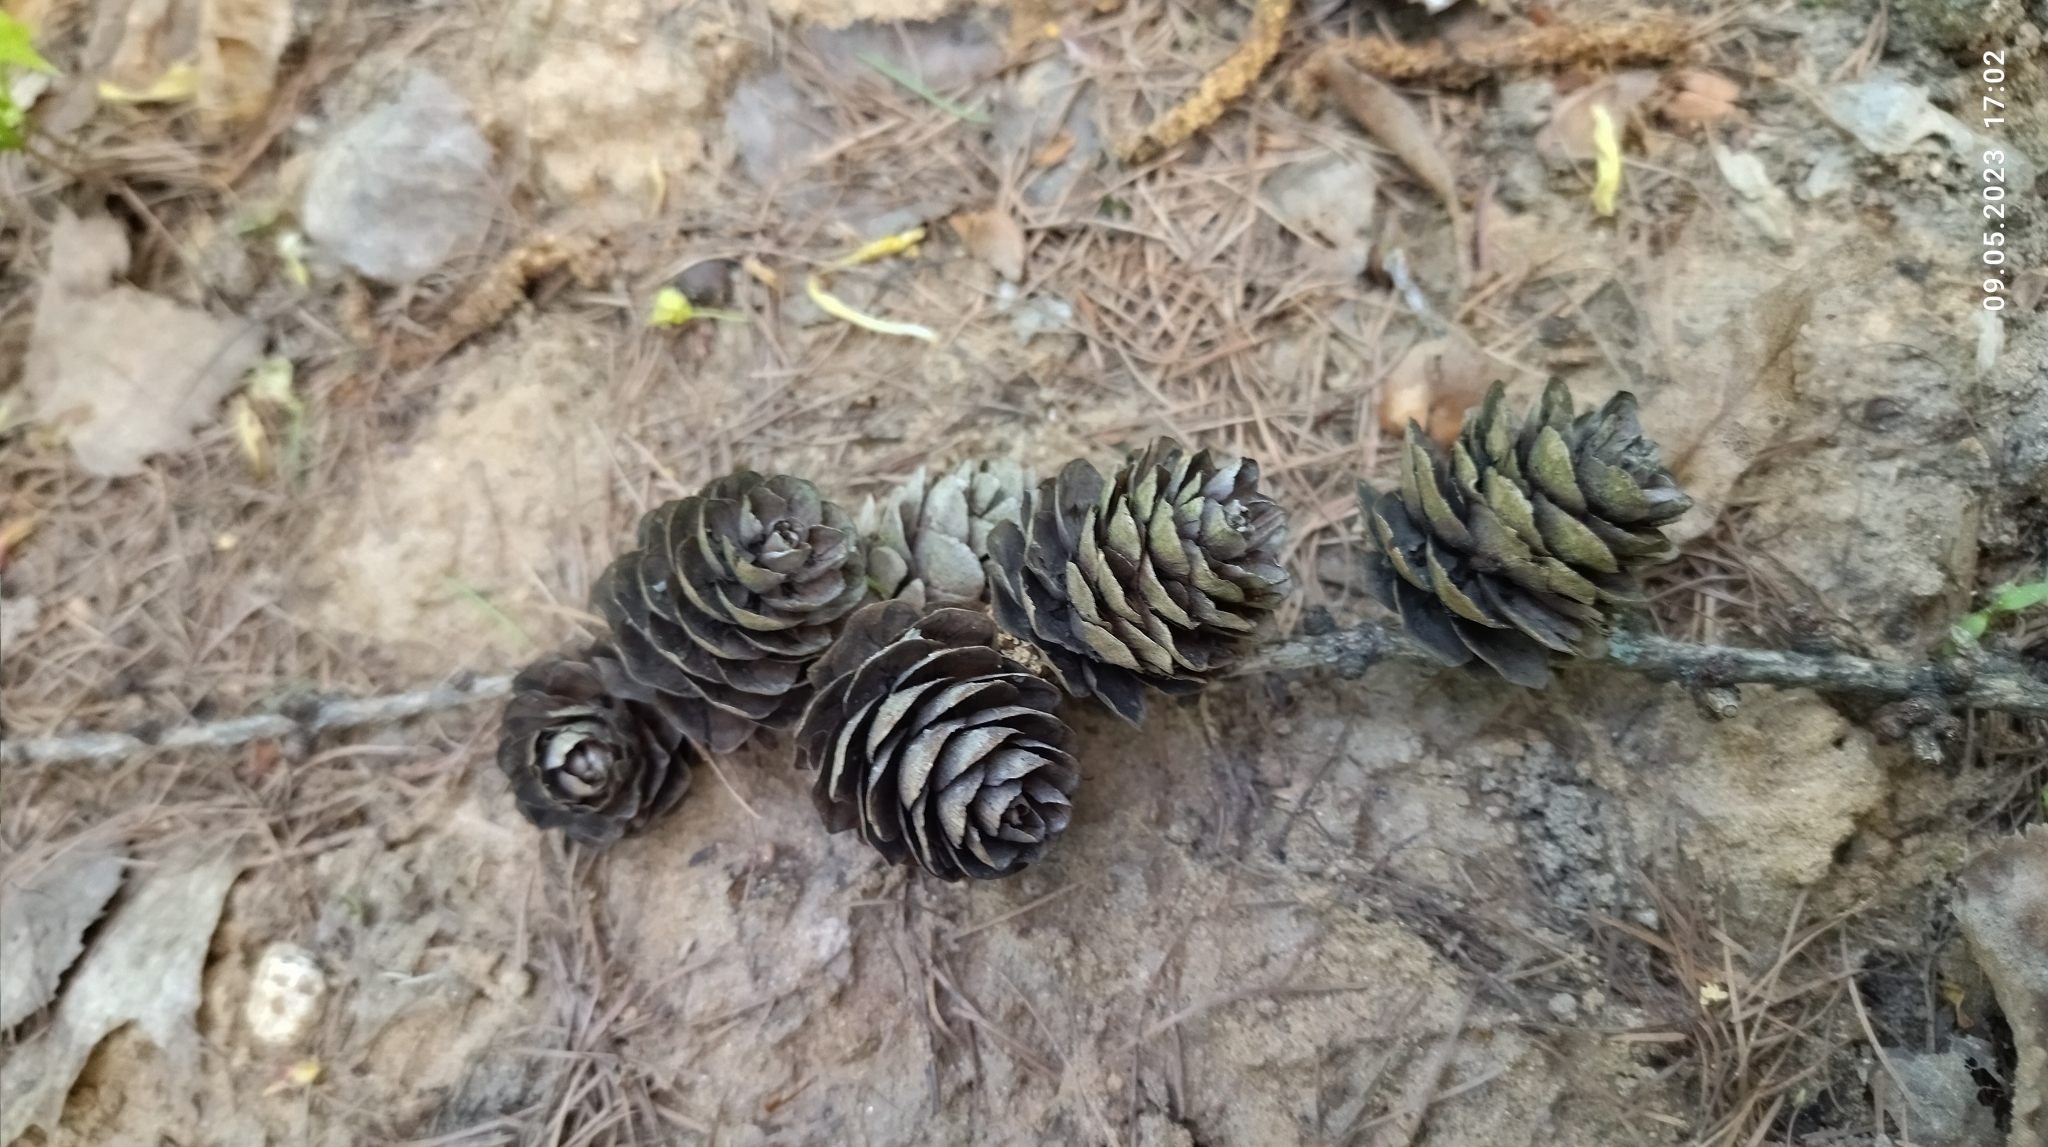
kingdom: Plantae
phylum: Tracheophyta
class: Pinopsida
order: Pinales
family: Pinaceae
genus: Larix
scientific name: Larix decidua
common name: European larch
